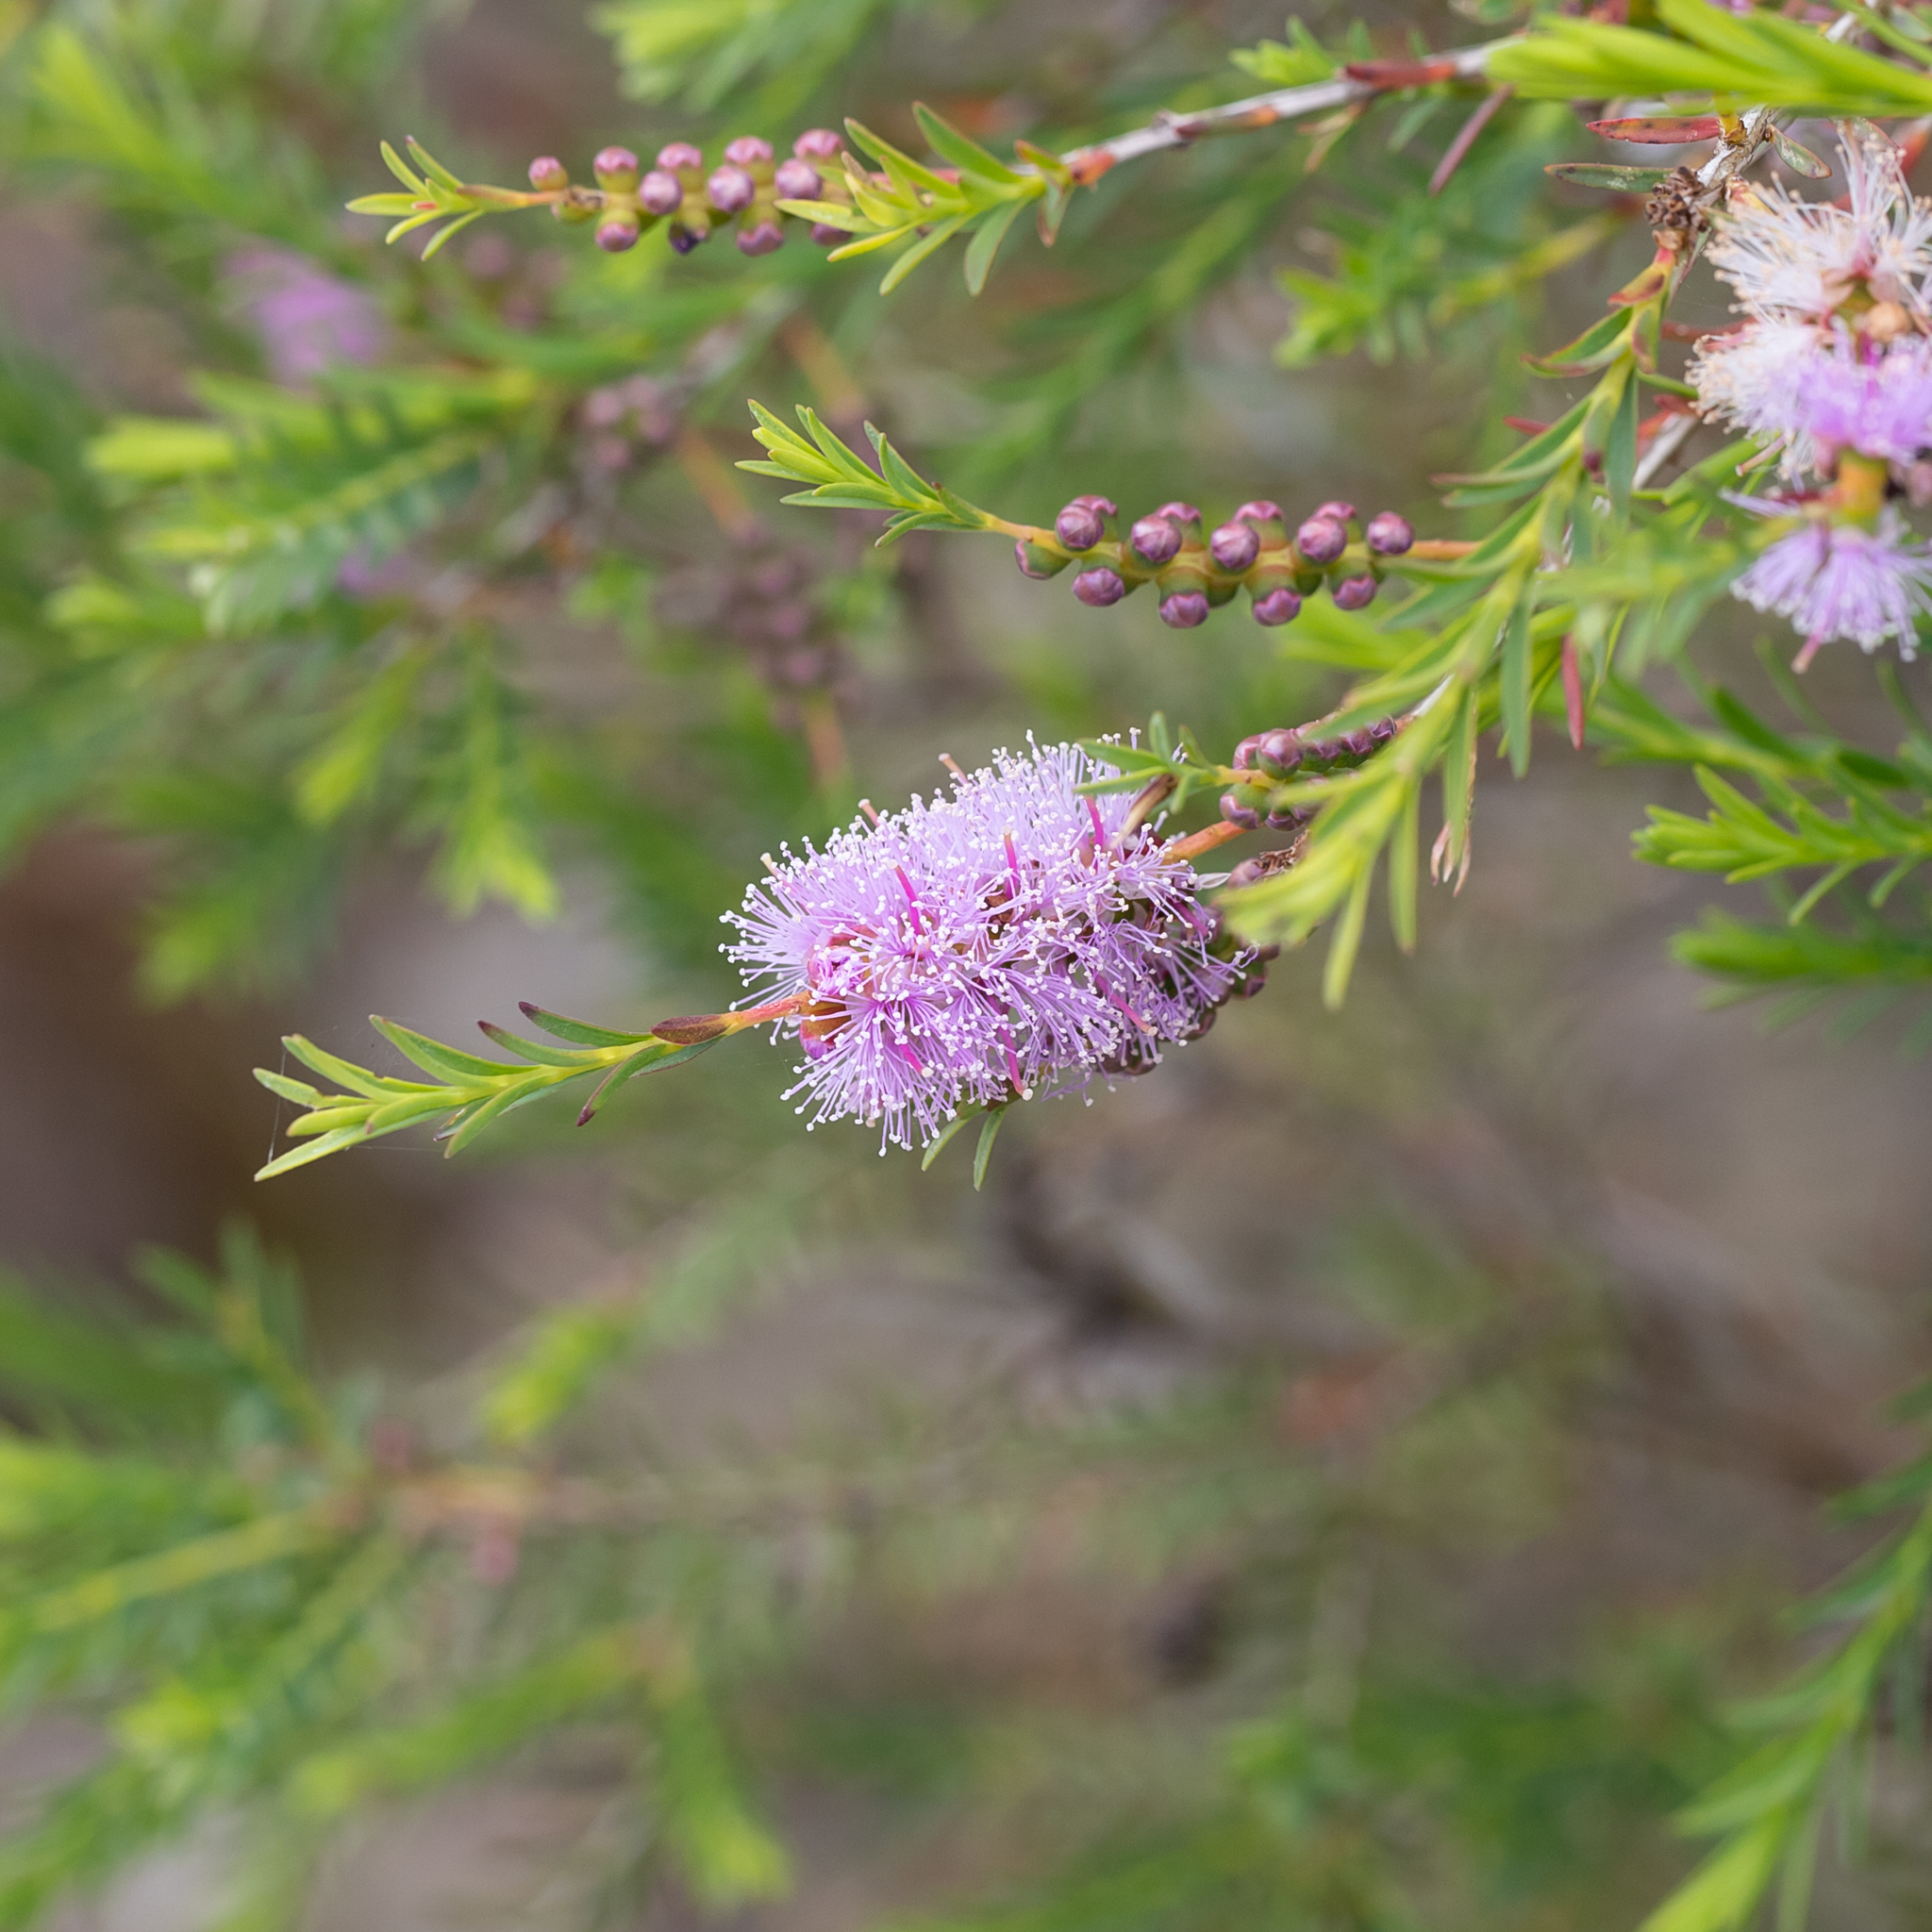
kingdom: Plantae
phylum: Tracheophyta
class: Magnoliopsida
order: Myrtales
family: Myrtaceae
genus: Melaleuca
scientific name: Melaleuca decussata
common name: Cross-leaf honey myrtle
